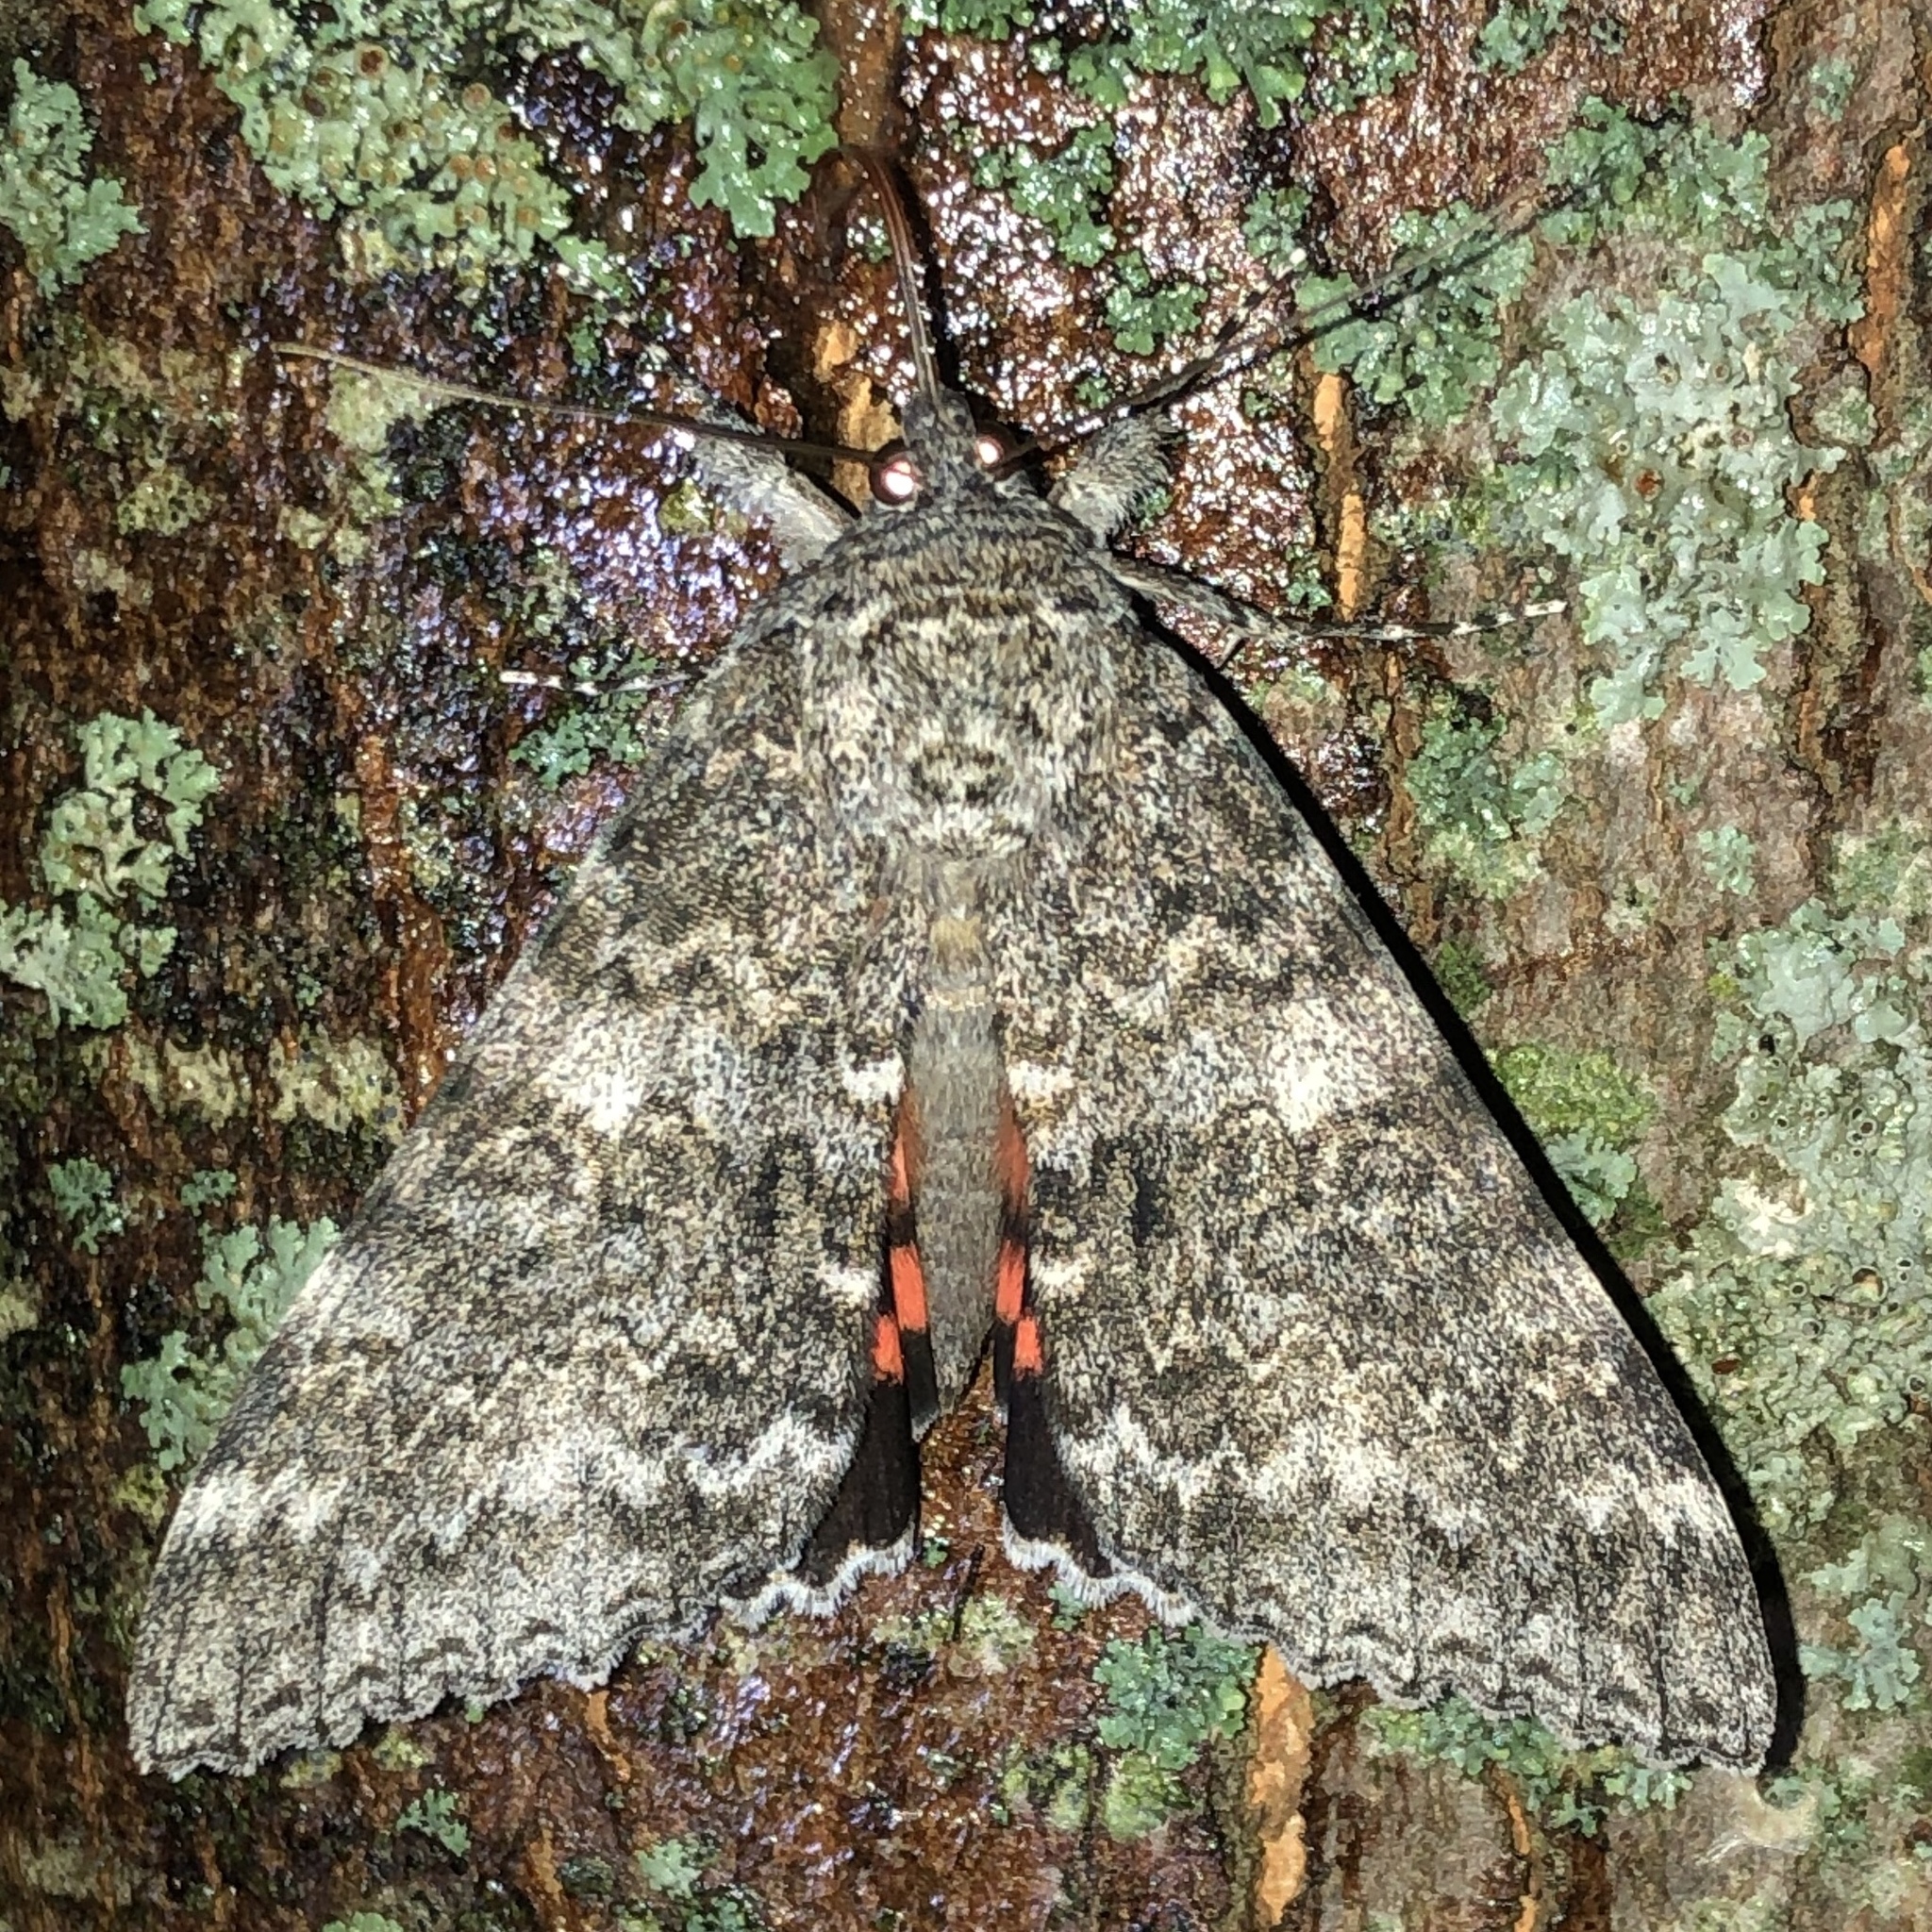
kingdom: Animalia
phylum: Arthropoda
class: Insecta
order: Lepidoptera
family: Erebidae
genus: Catocala
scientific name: Catocala unijuga
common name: Once-married underwing
